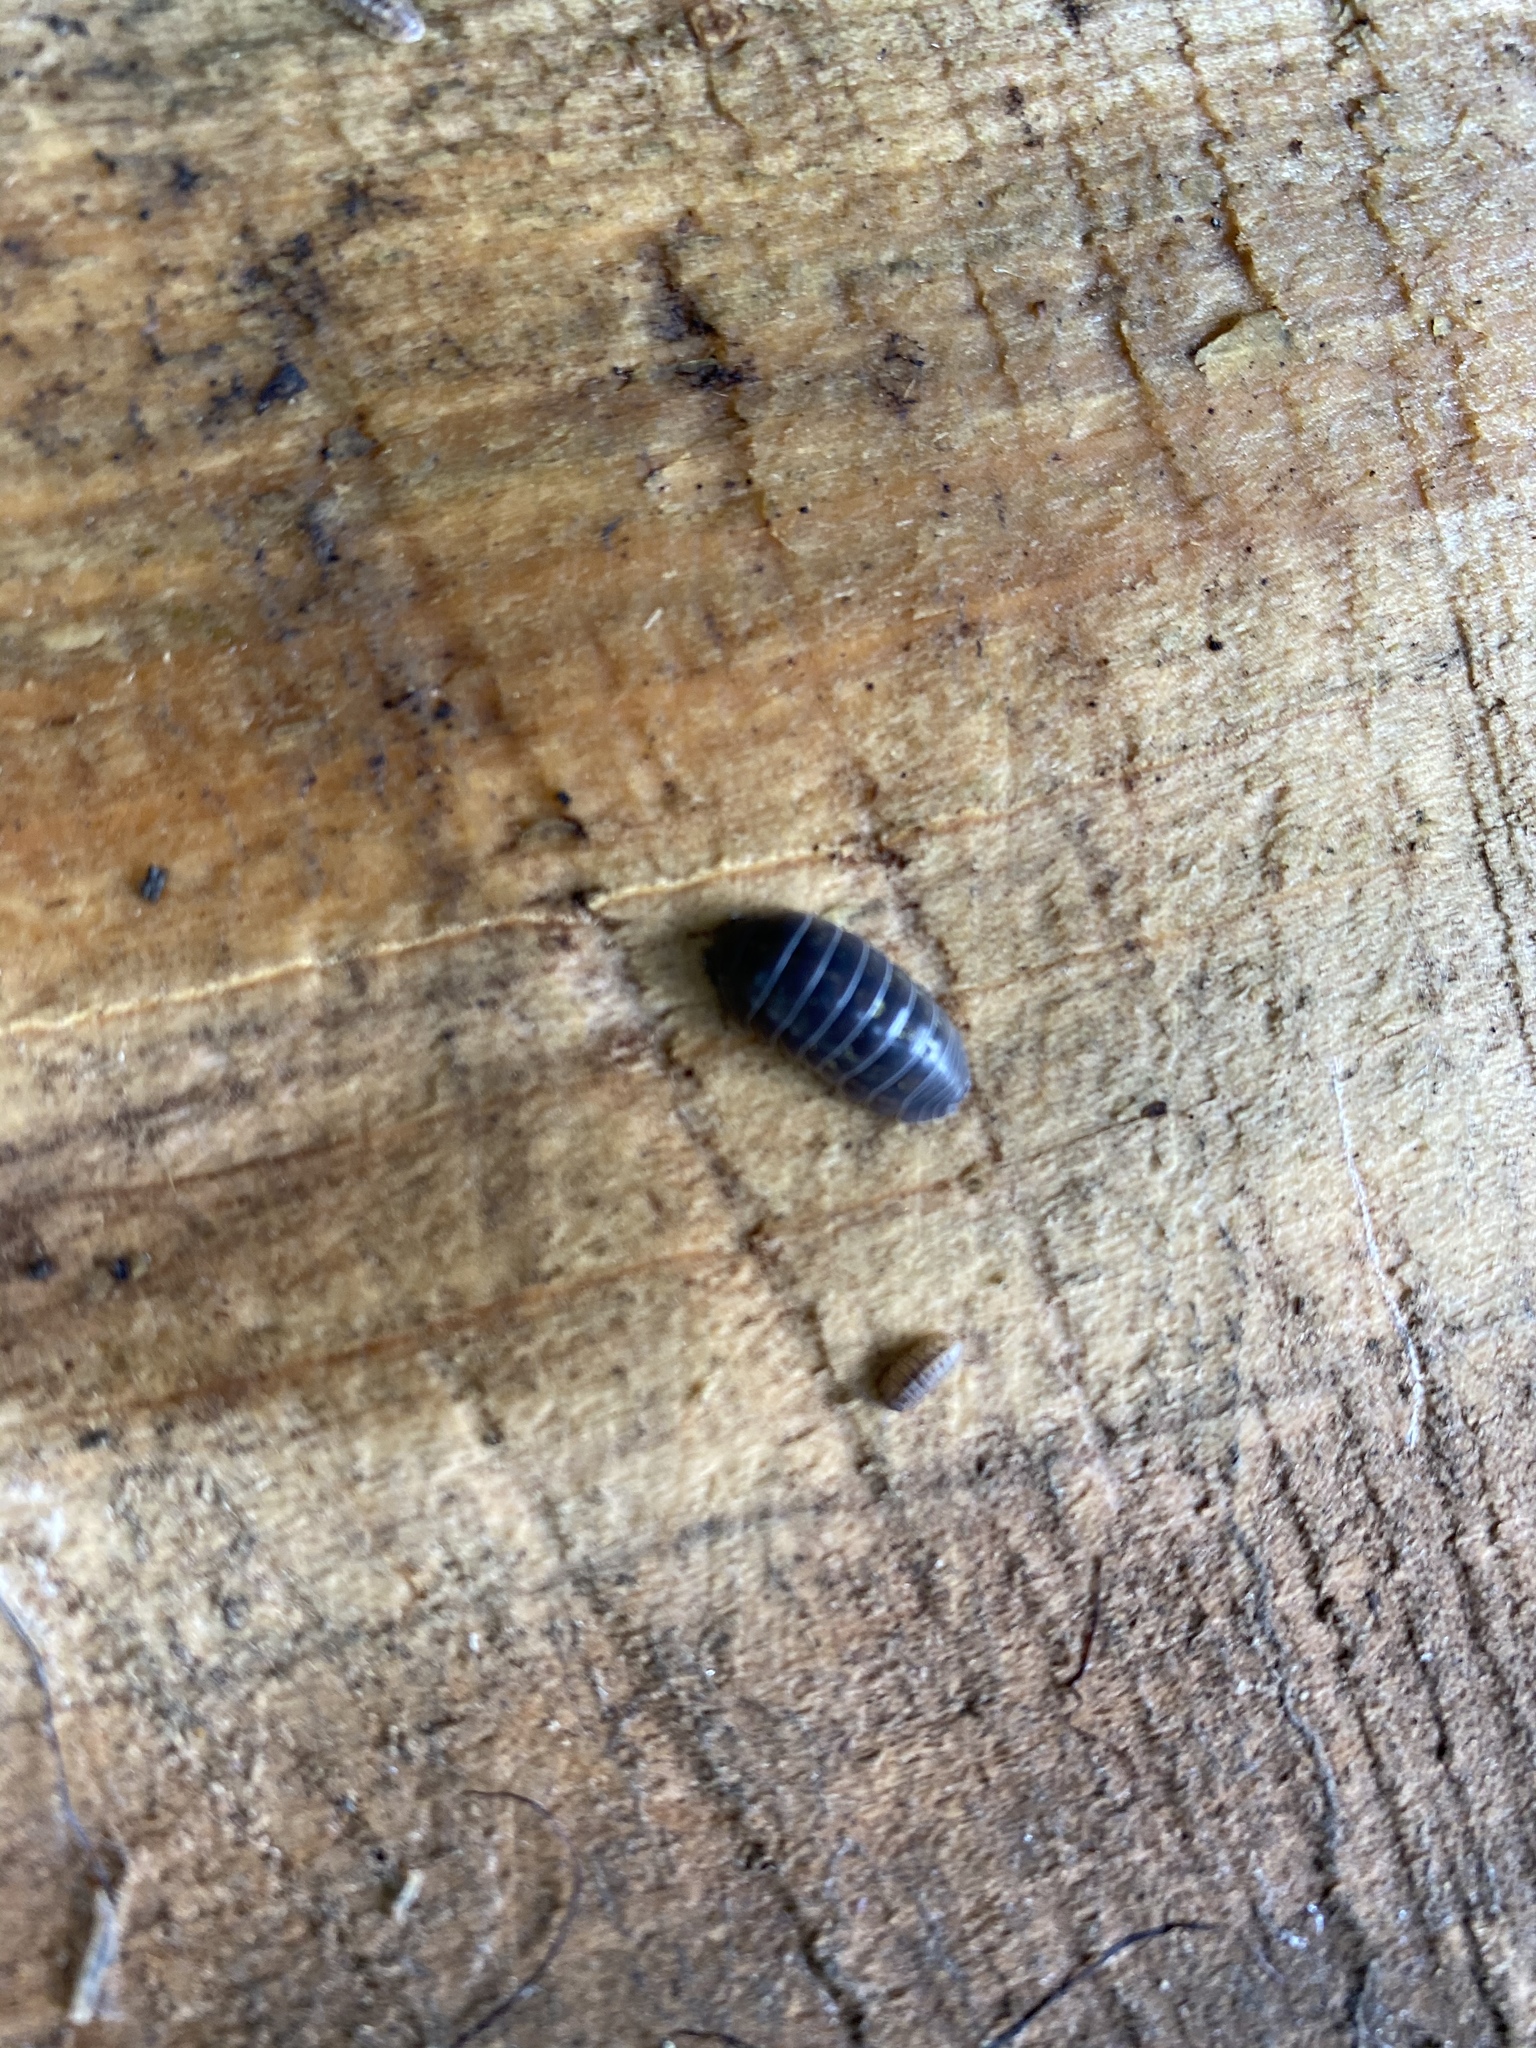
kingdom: Animalia
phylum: Arthropoda
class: Malacostraca
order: Isopoda
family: Armadillidiidae
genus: Armadillidium
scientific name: Armadillidium vulgare
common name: Common pill woodlouse
